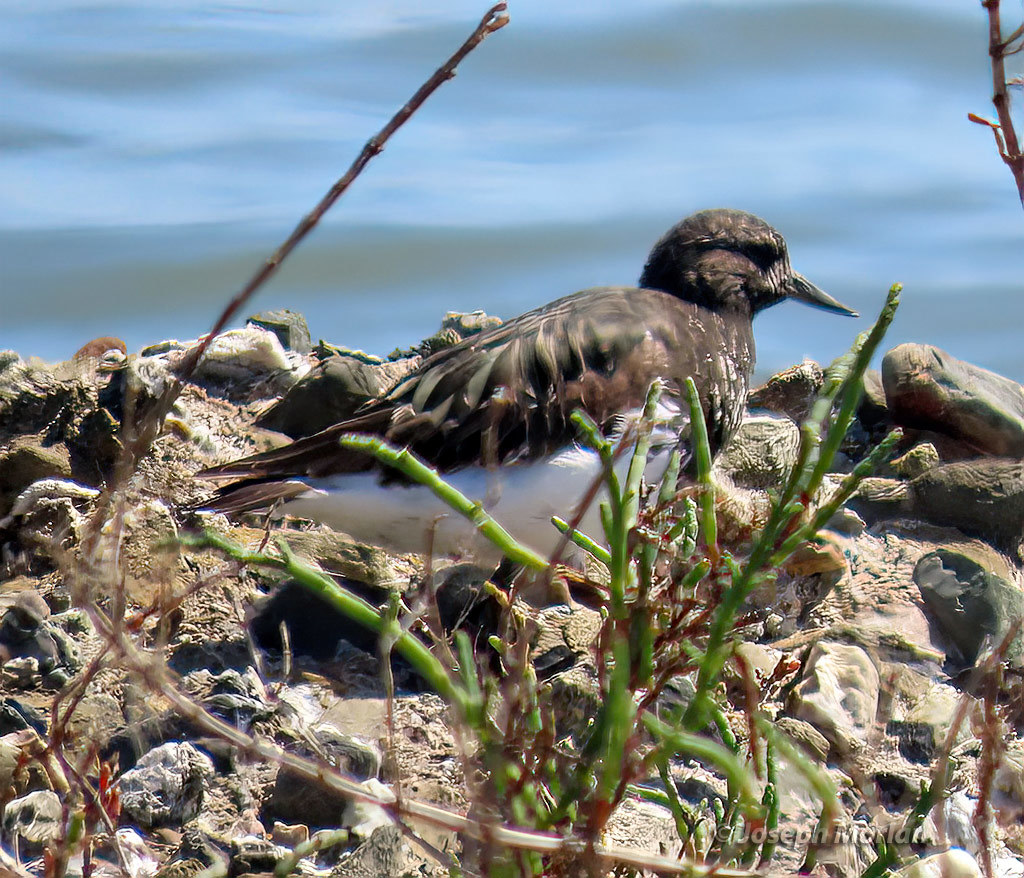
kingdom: Animalia
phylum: Chordata
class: Aves
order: Charadriiformes
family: Scolopacidae
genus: Arenaria
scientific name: Arenaria melanocephala
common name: Black turnstone
